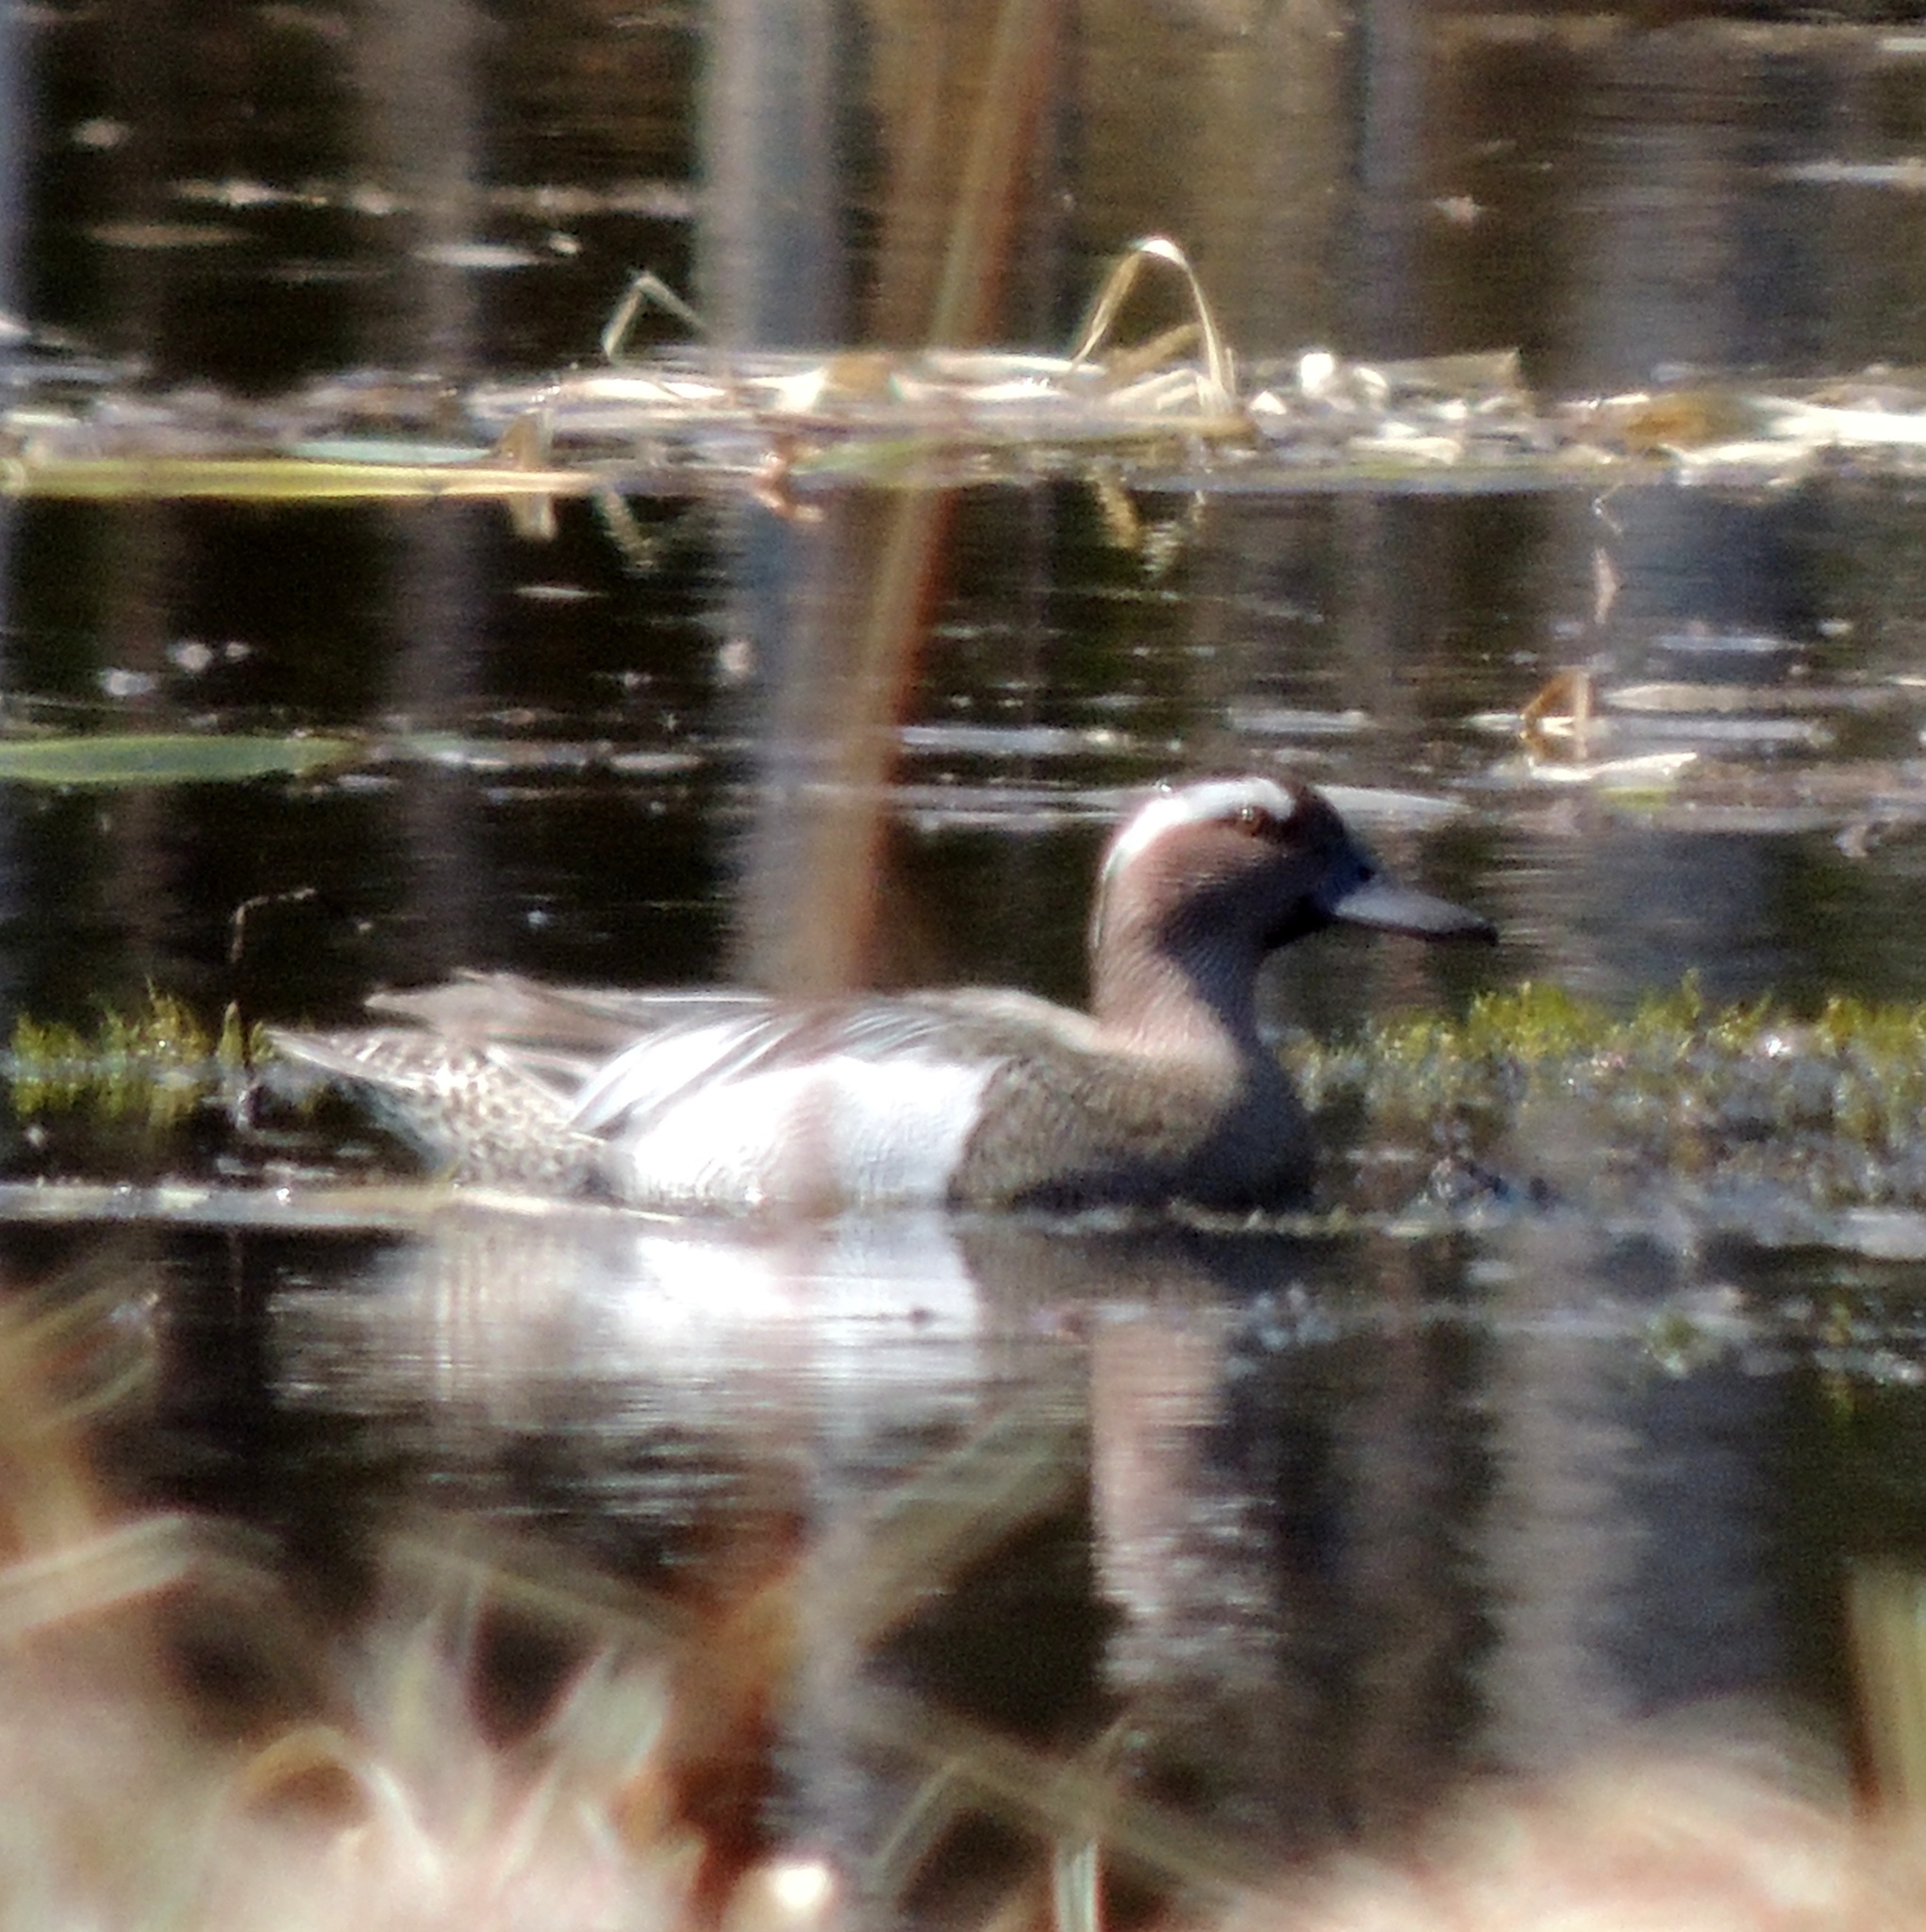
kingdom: Animalia
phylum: Chordata
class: Aves
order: Anseriformes
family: Anatidae
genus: Spatula
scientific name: Spatula querquedula
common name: Garganey
